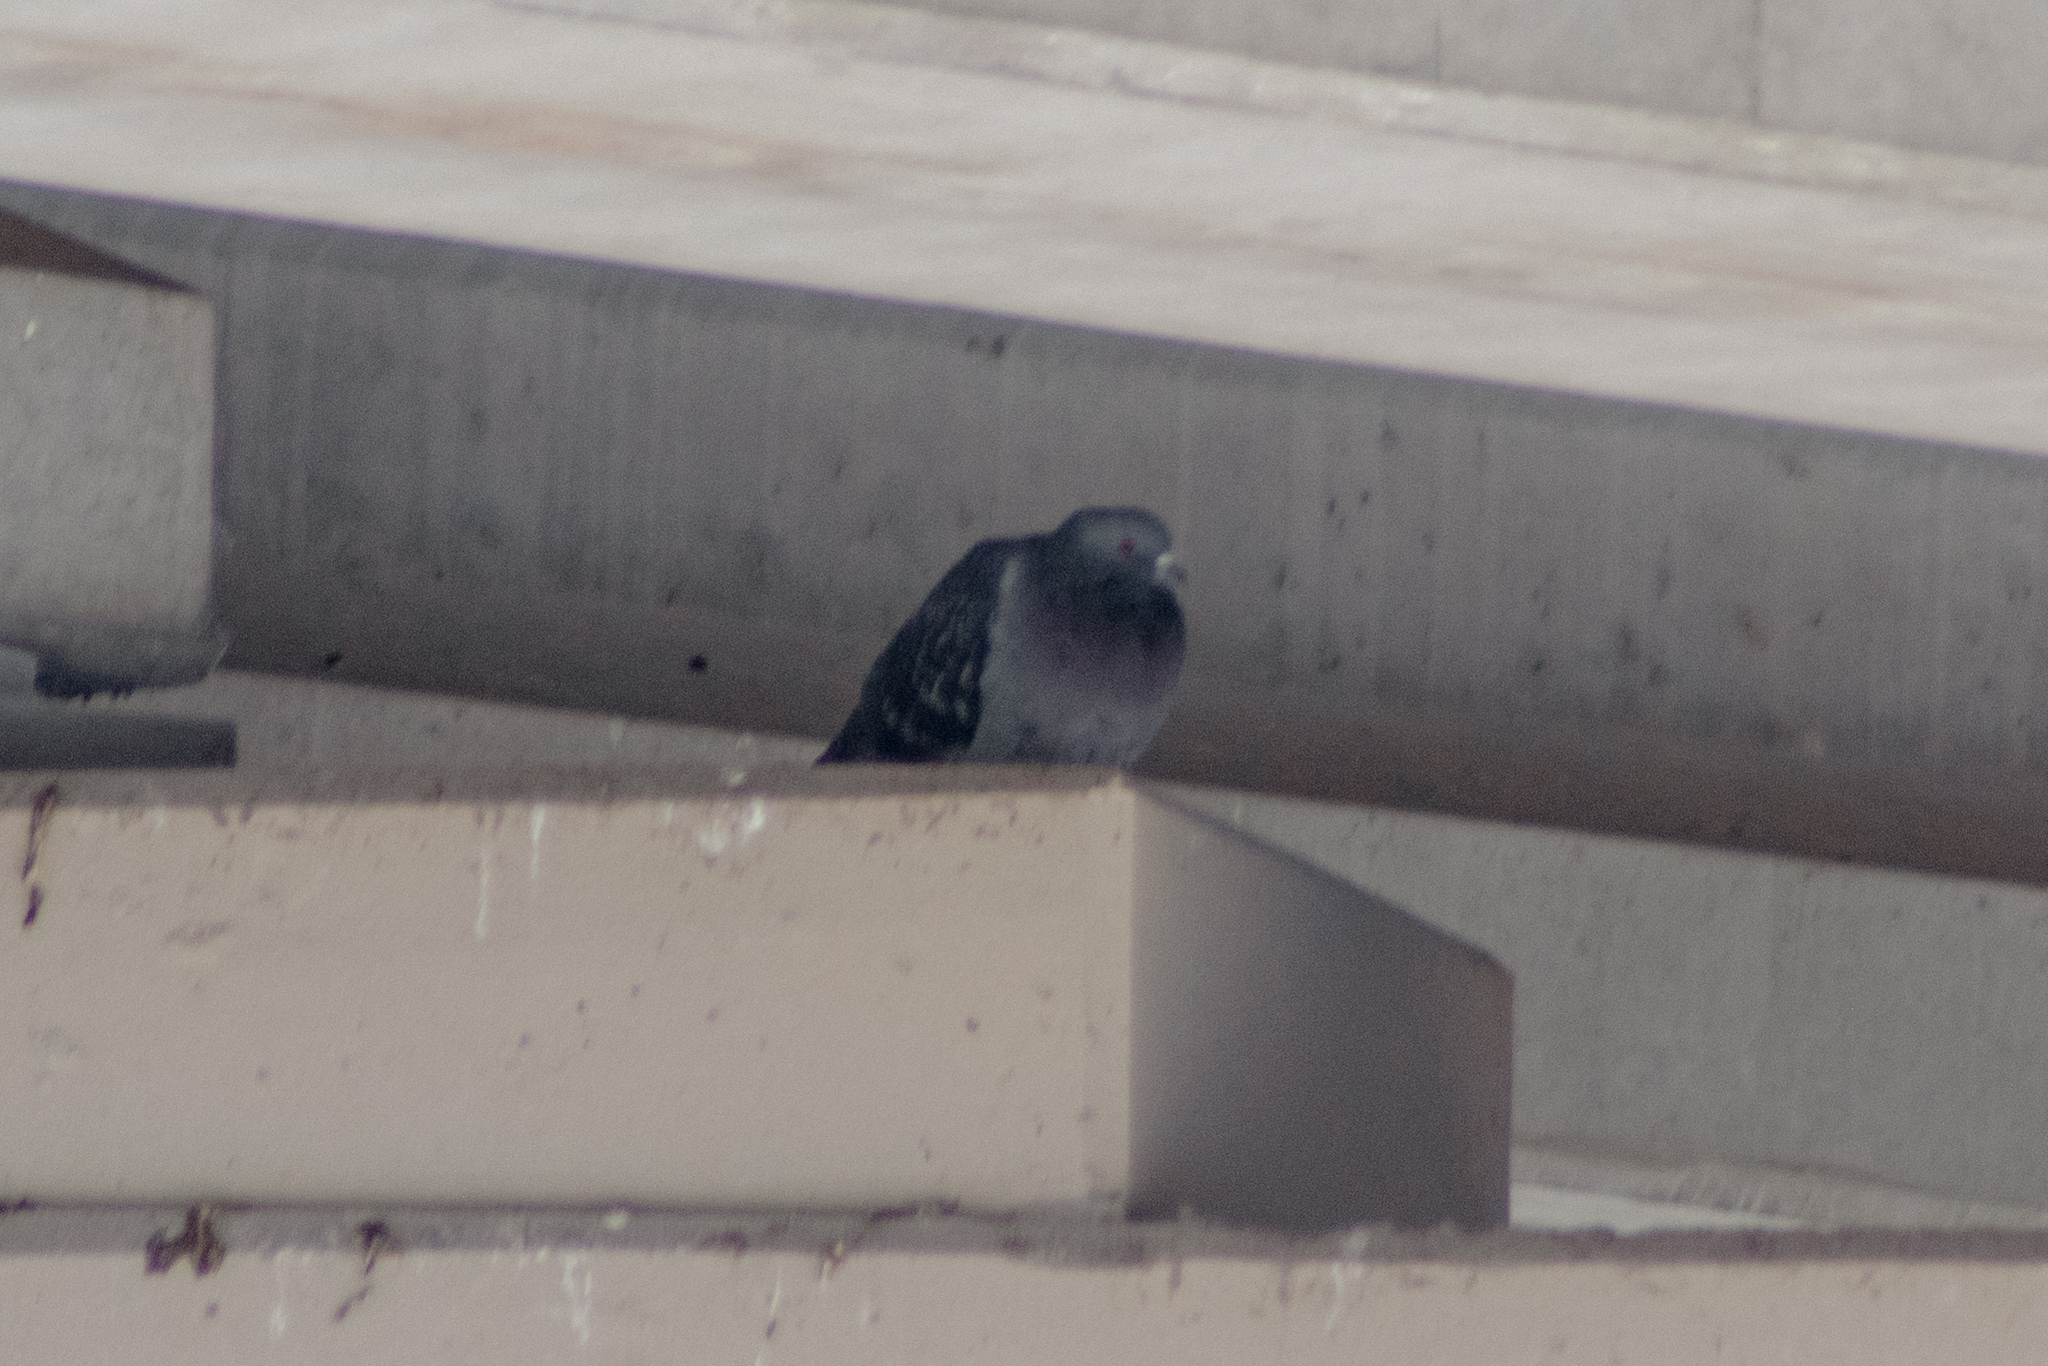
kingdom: Animalia
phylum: Chordata
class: Aves
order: Columbiformes
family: Columbidae
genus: Columba
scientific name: Columba livia
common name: Rock pigeon
